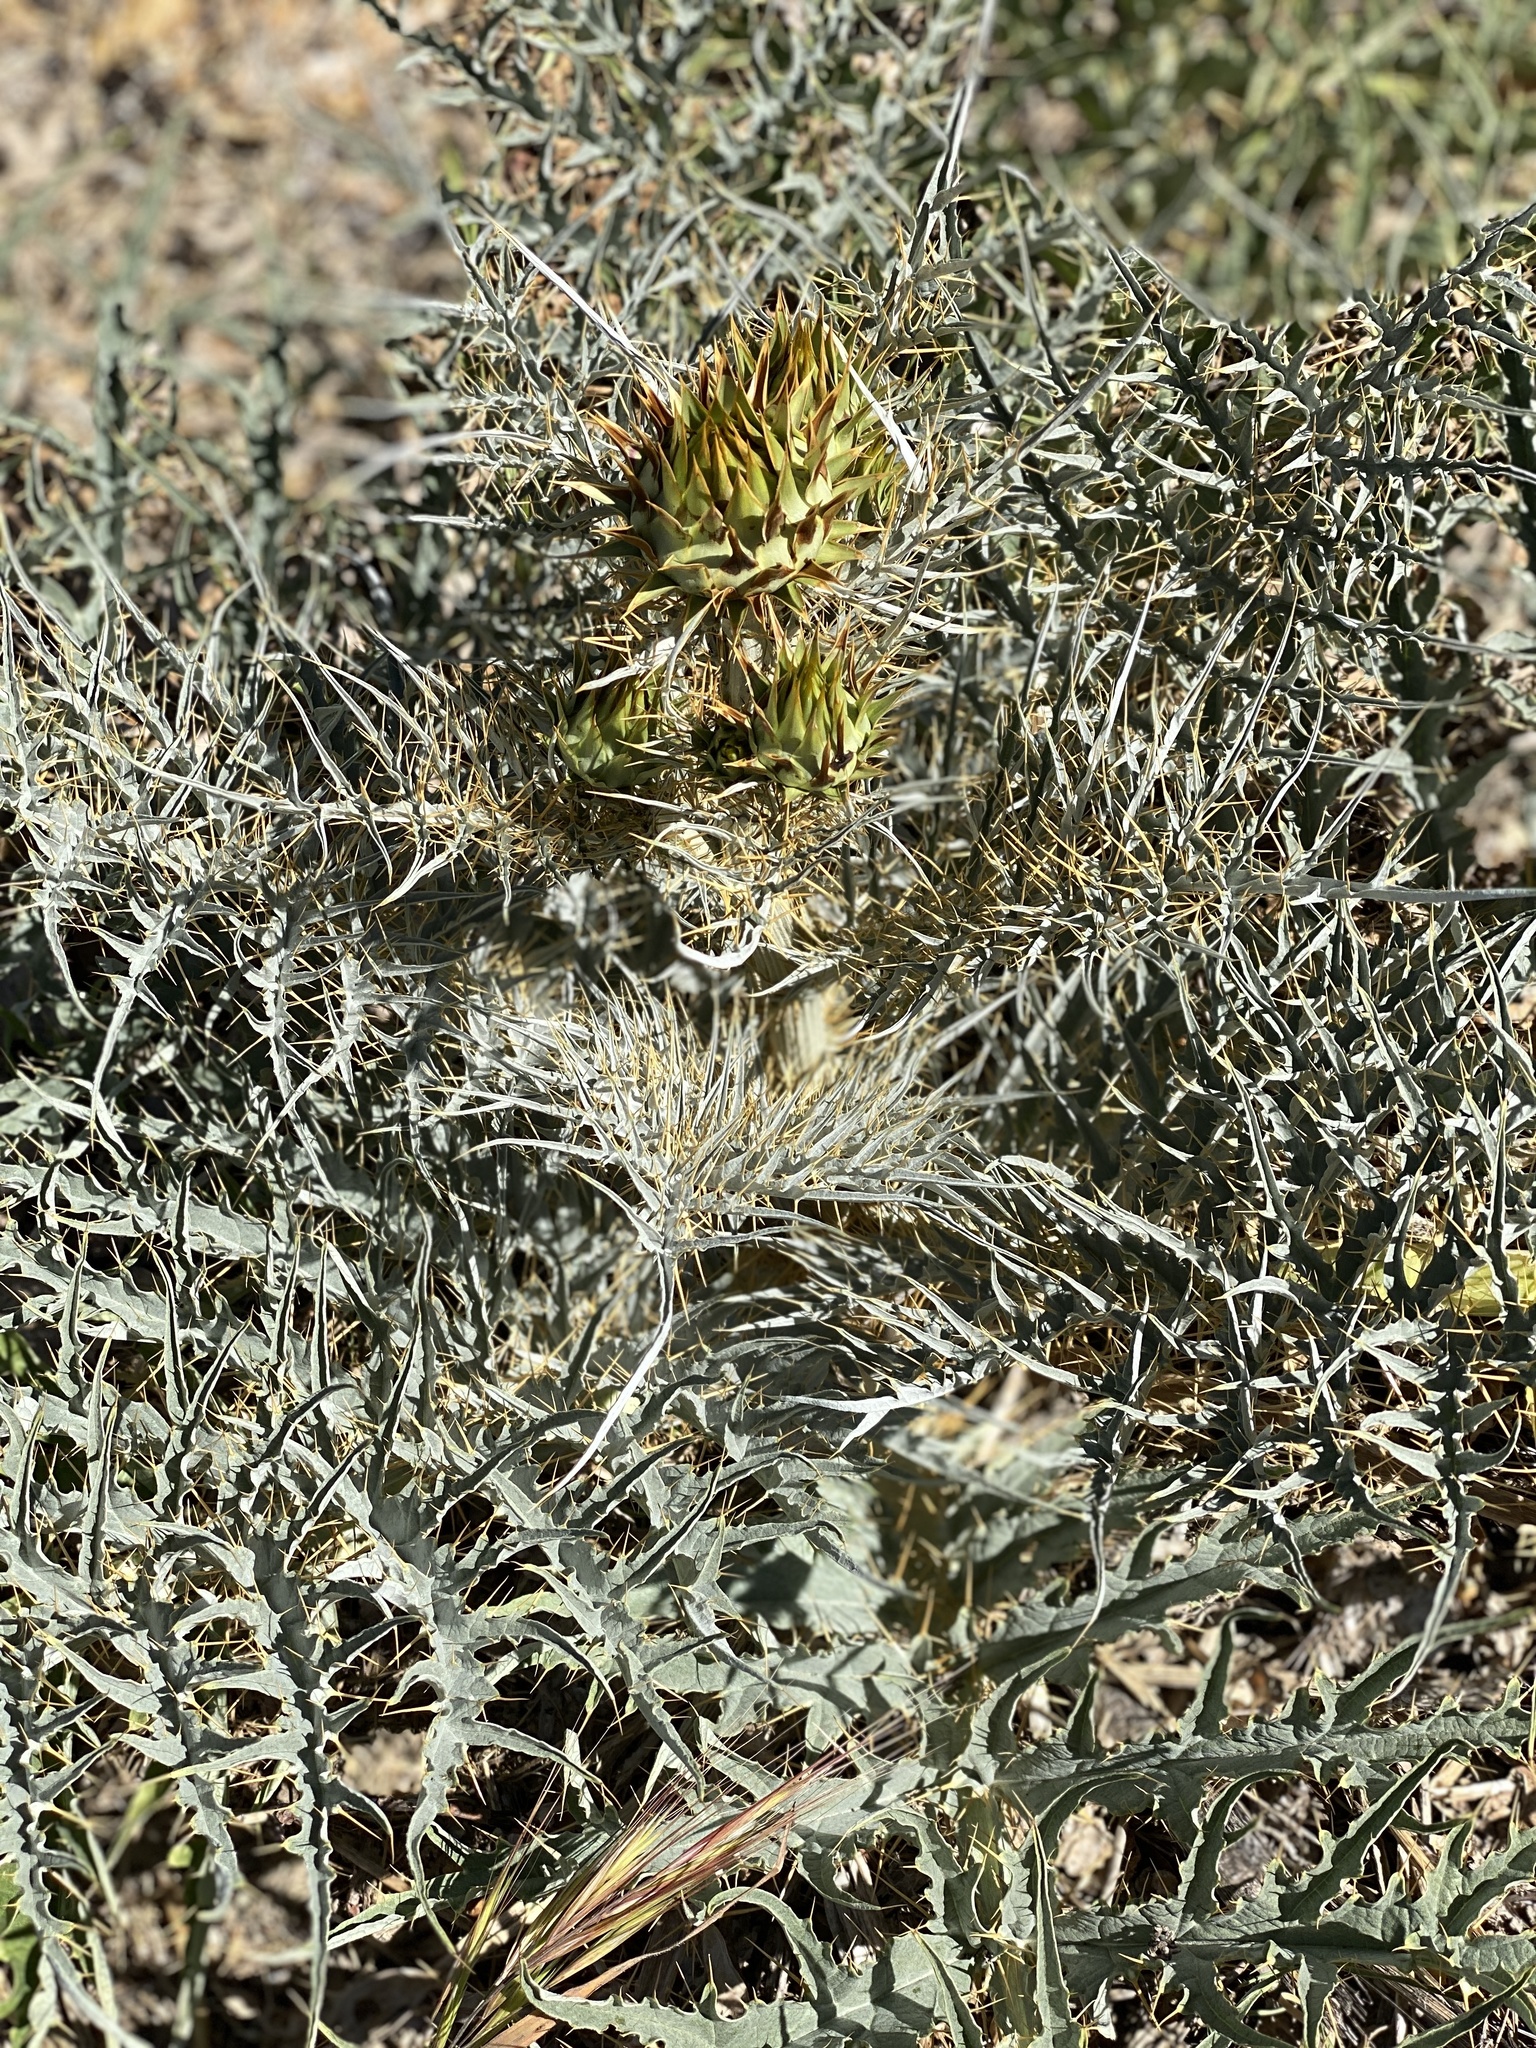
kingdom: Plantae
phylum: Tracheophyta
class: Magnoliopsida
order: Asterales
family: Asteraceae
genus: Cynara
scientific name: Cynara cardunculus
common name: Globe artichoke
